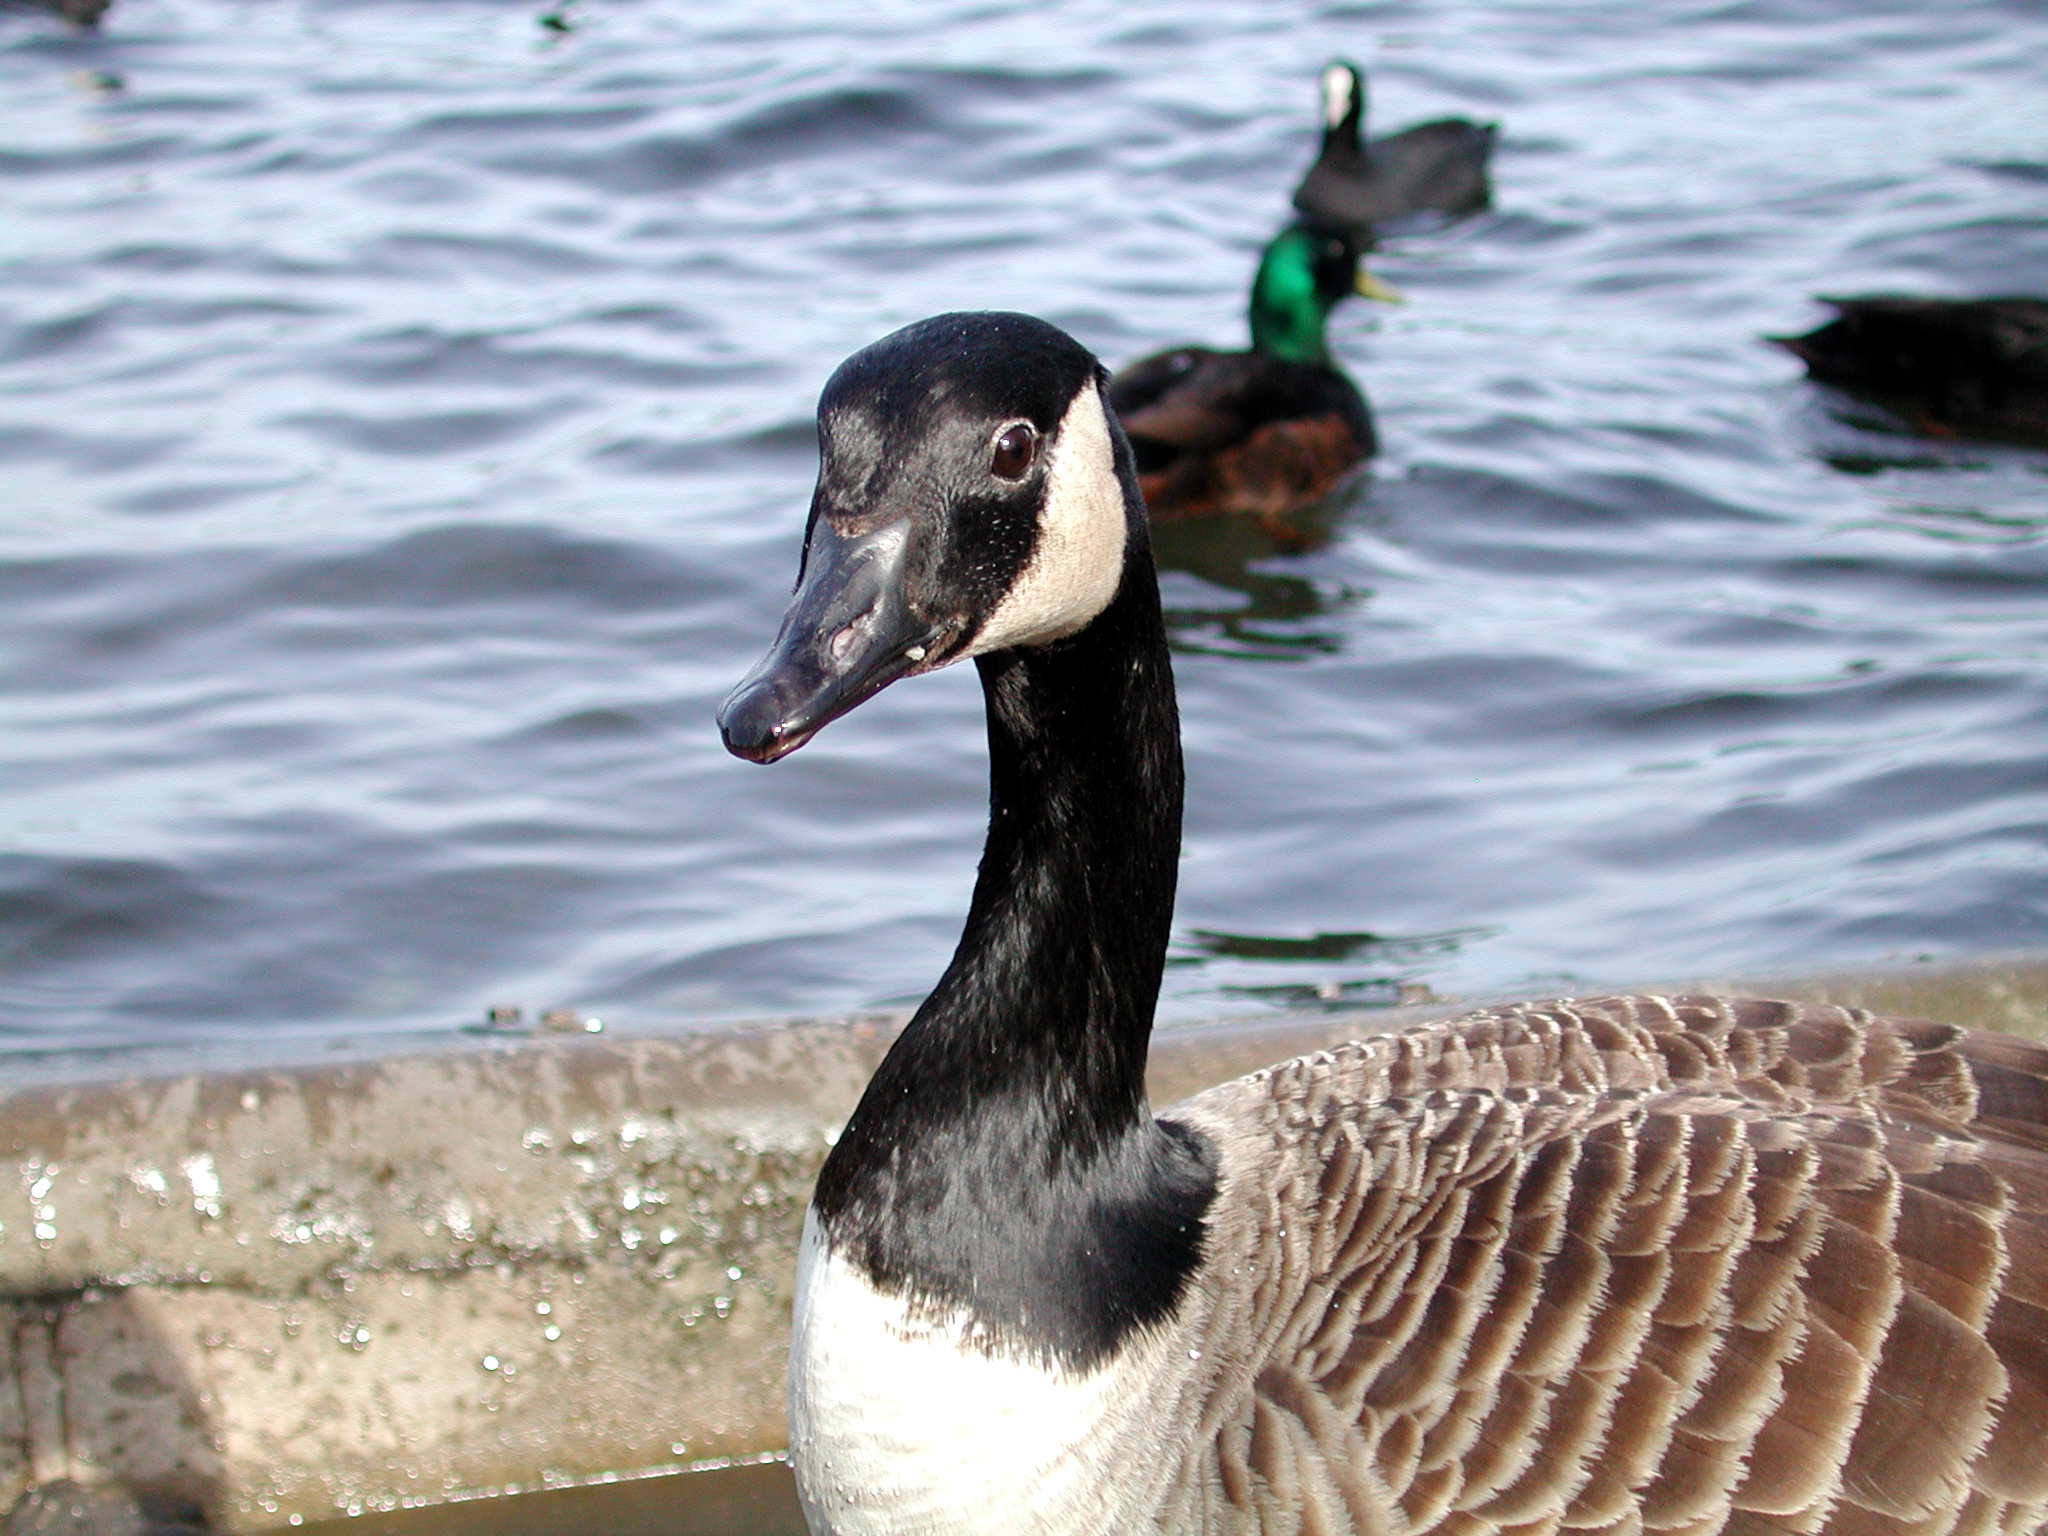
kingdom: Animalia
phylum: Chordata
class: Aves
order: Anseriformes
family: Anatidae
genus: Branta
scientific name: Branta canadensis
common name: Canada goose
